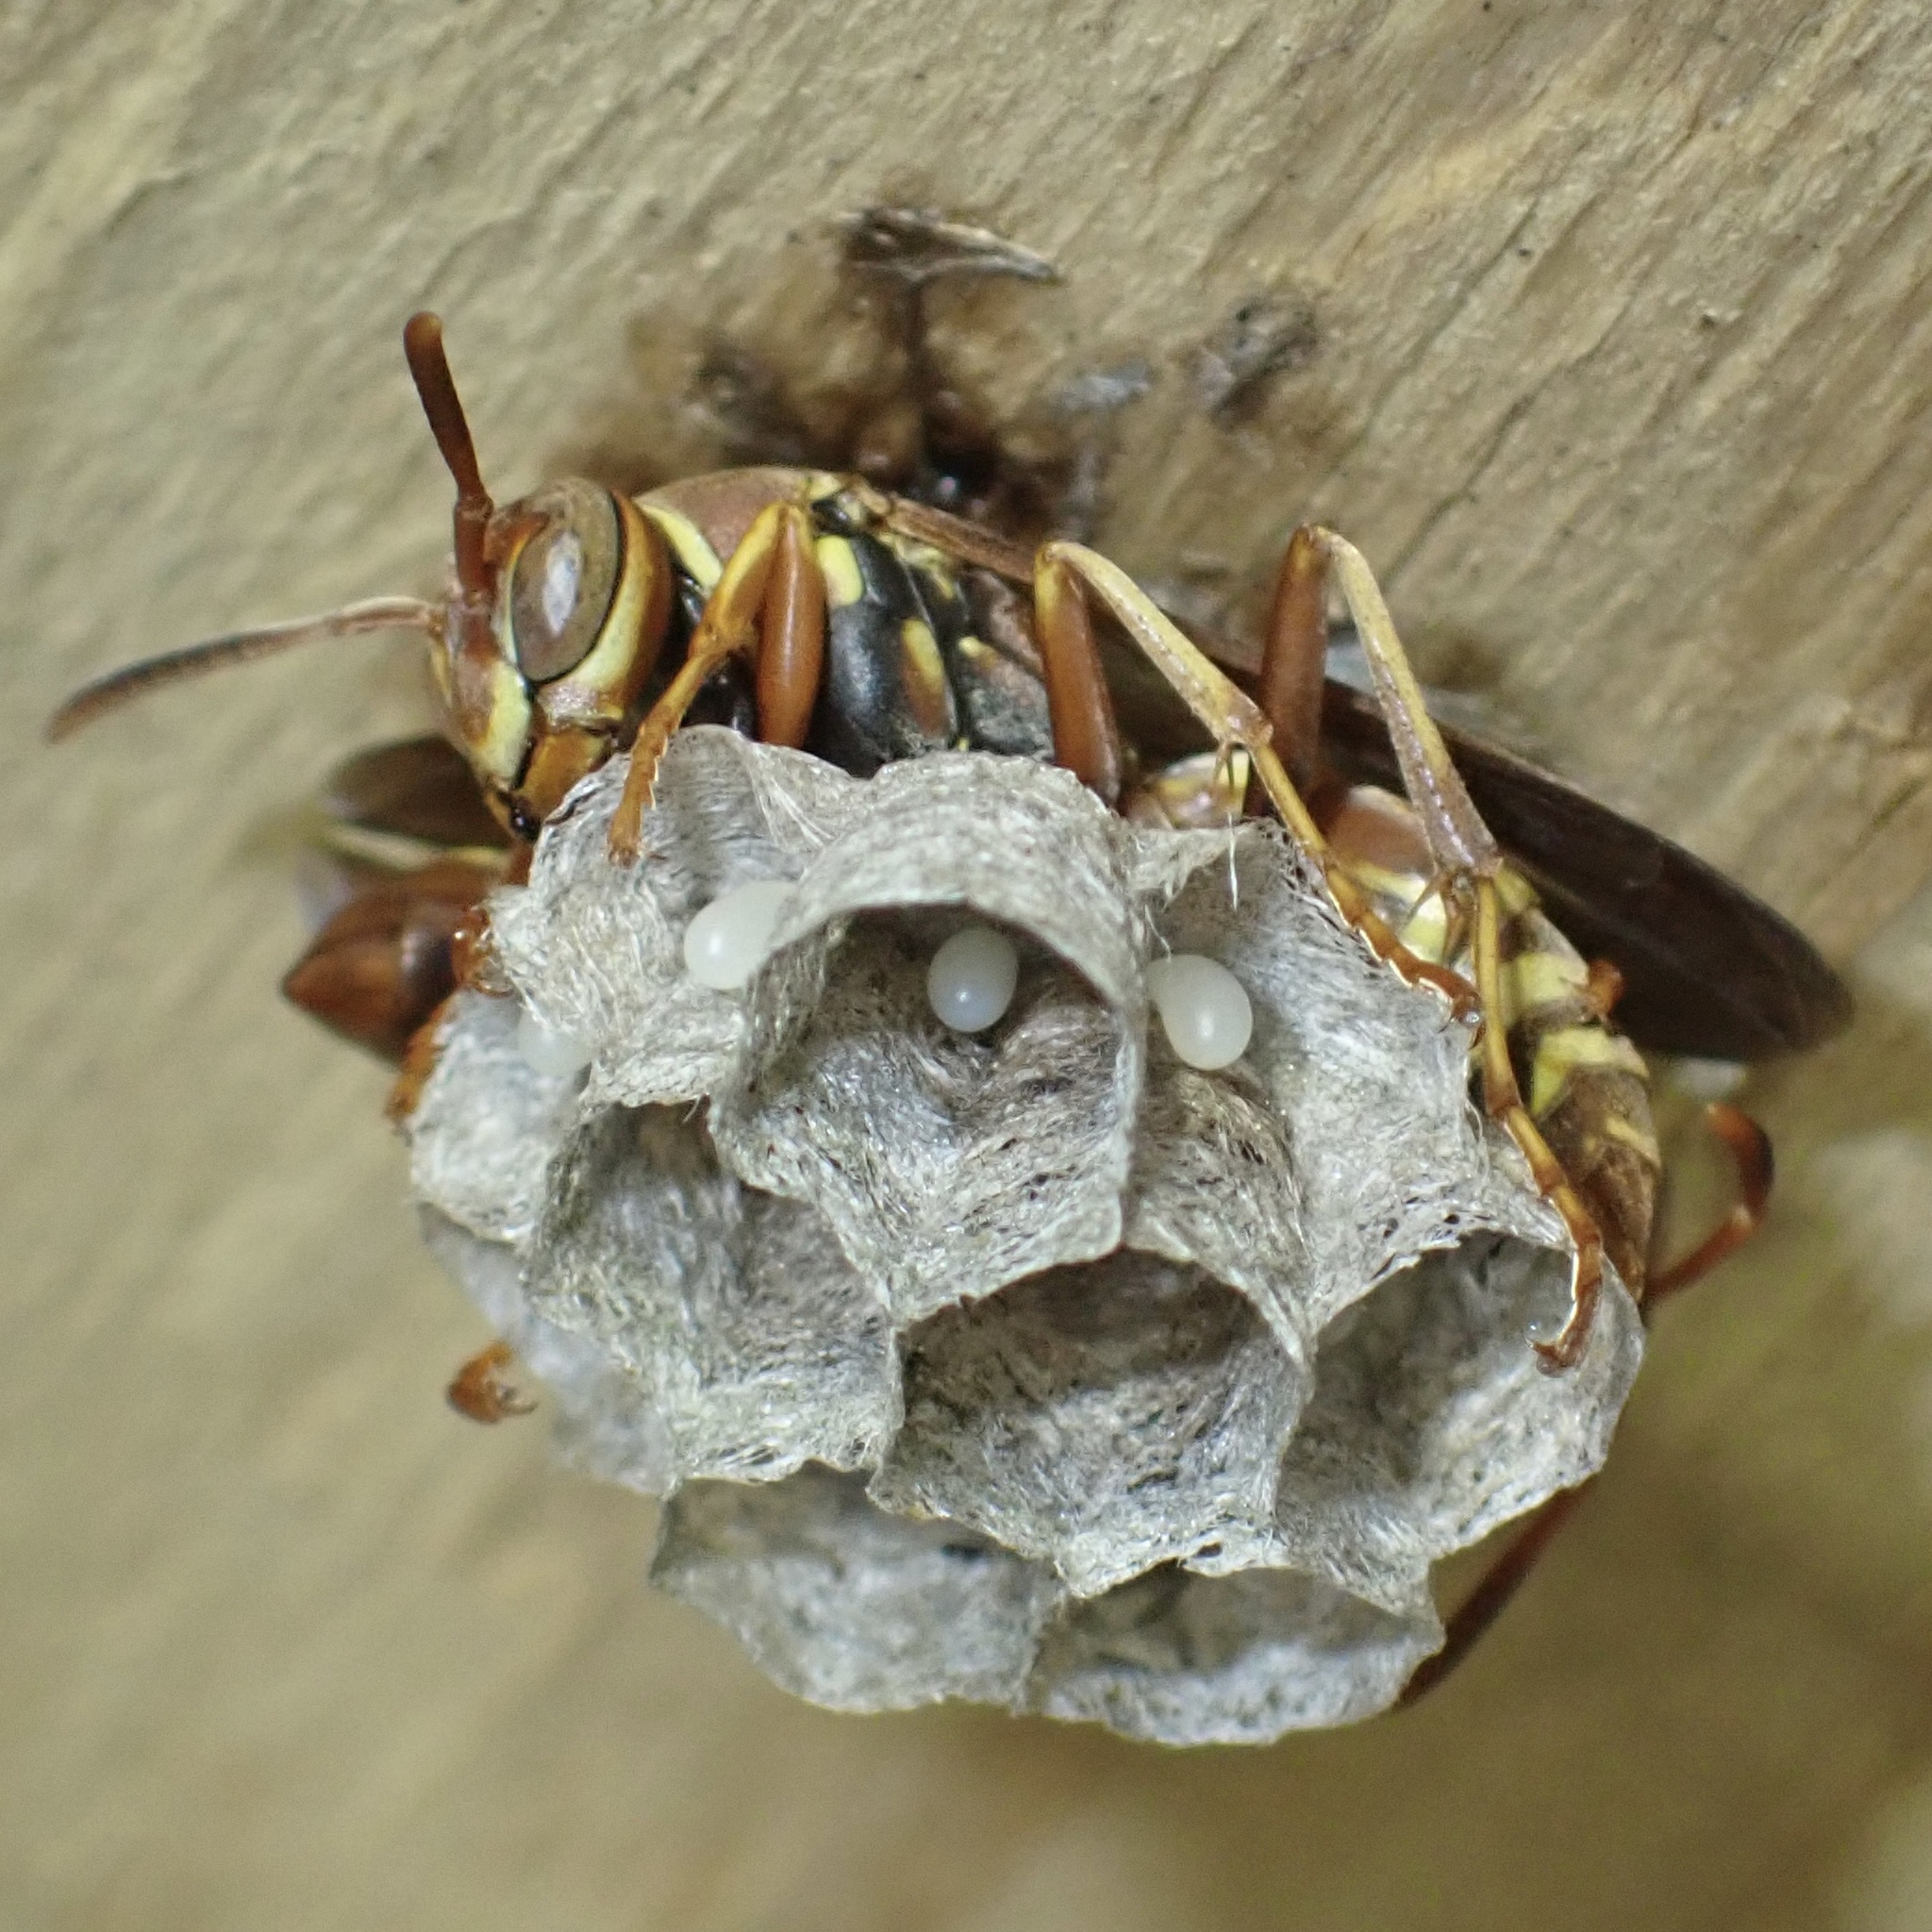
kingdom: Animalia
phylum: Arthropoda
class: Insecta
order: Hymenoptera
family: Eumenidae
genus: Polistes
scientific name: Polistes dorsalis
